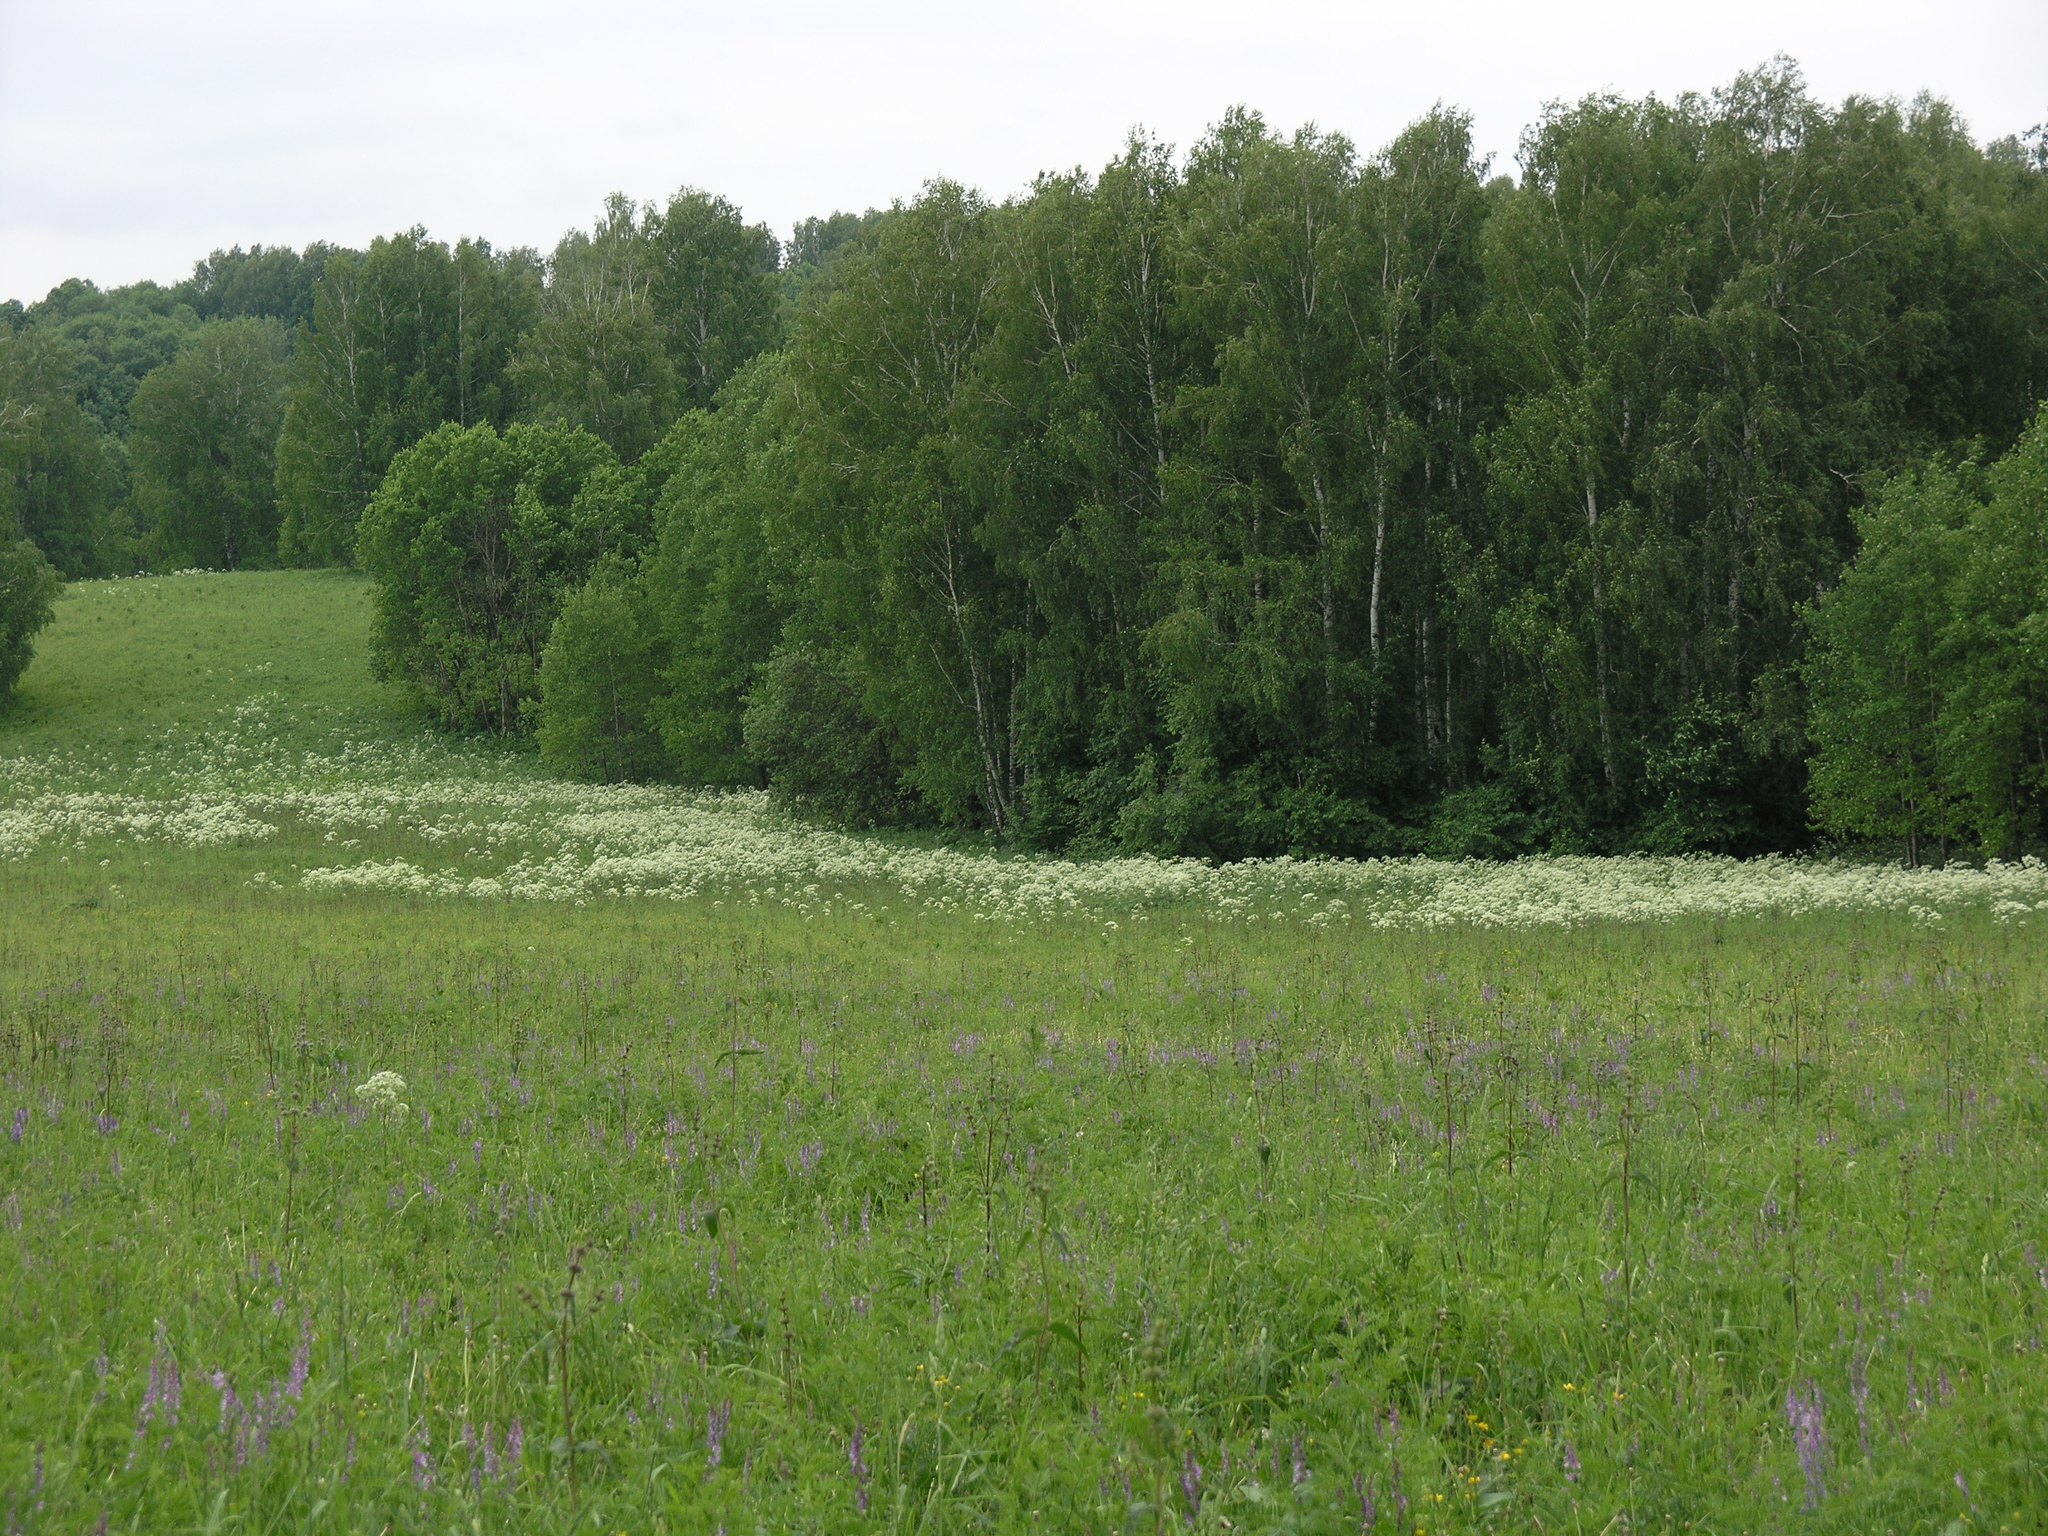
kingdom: Plantae
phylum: Tracheophyta
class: Magnoliopsida
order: Malpighiales
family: Salicaceae
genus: Populus
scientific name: Populus tremula
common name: European aspen
